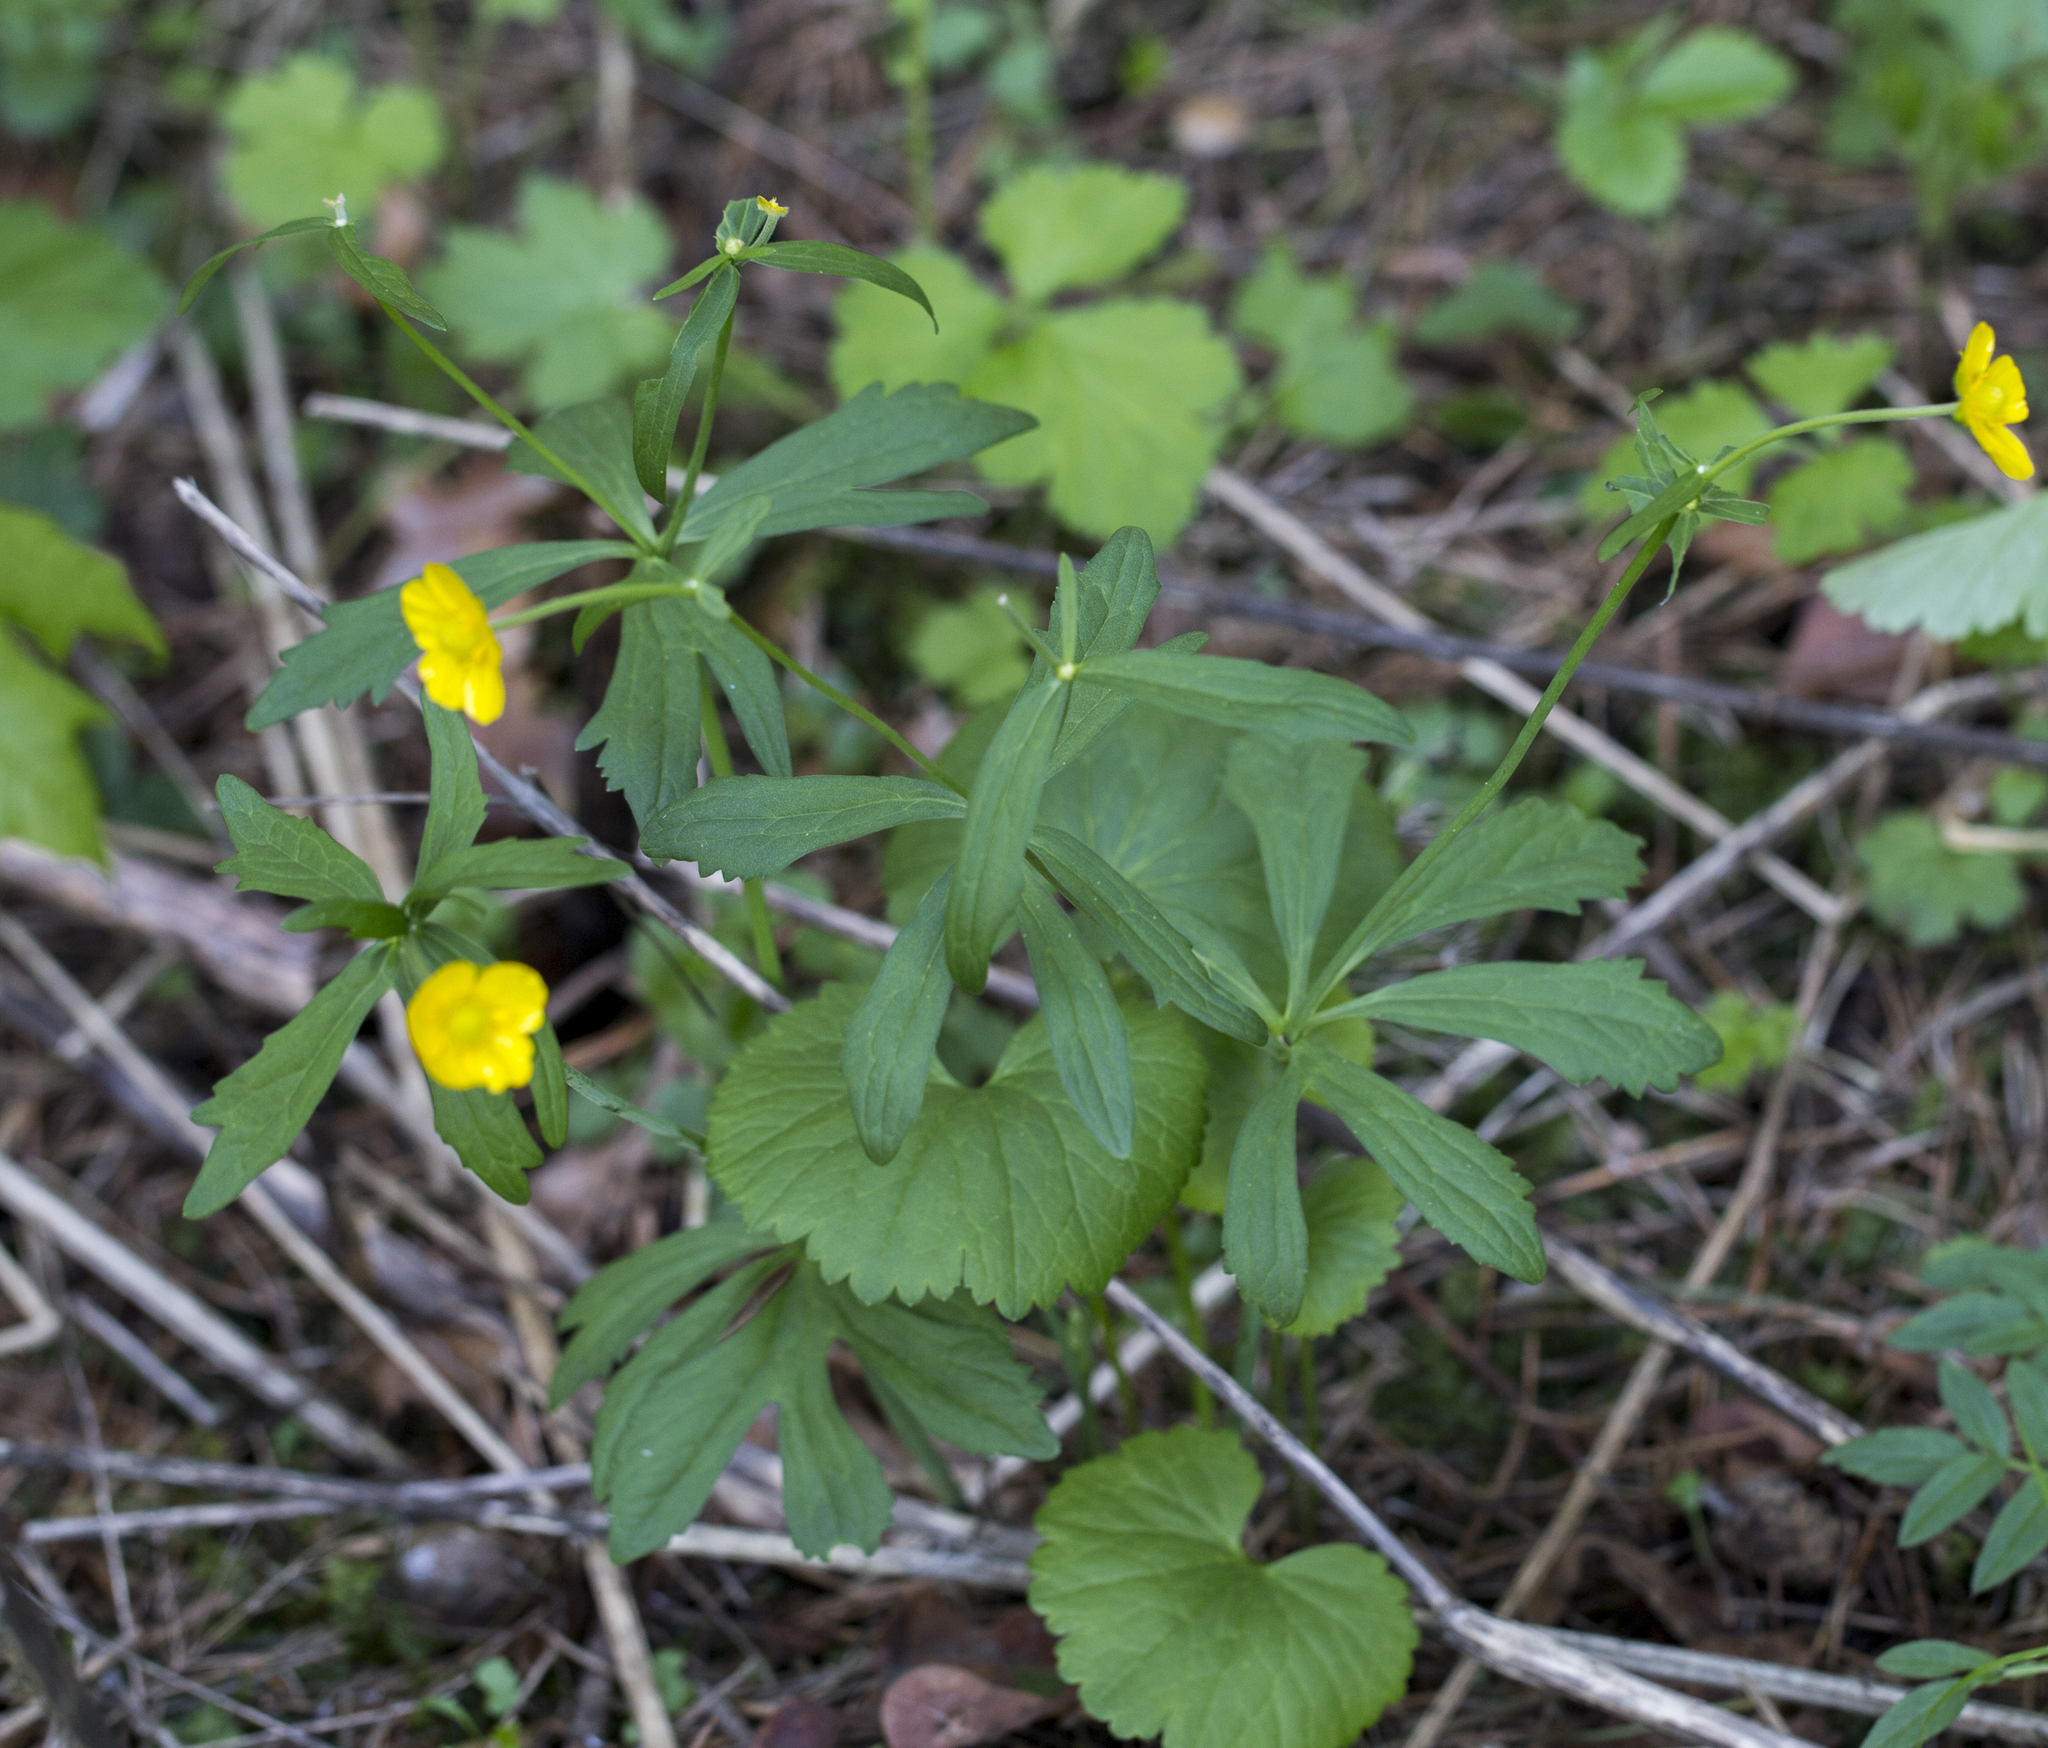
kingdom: Plantae
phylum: Tracheophyta
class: Magnoliopsida
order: Ranunculales
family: Ranunculaceae
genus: Ranunculus
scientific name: Ranunculus cassubicus
